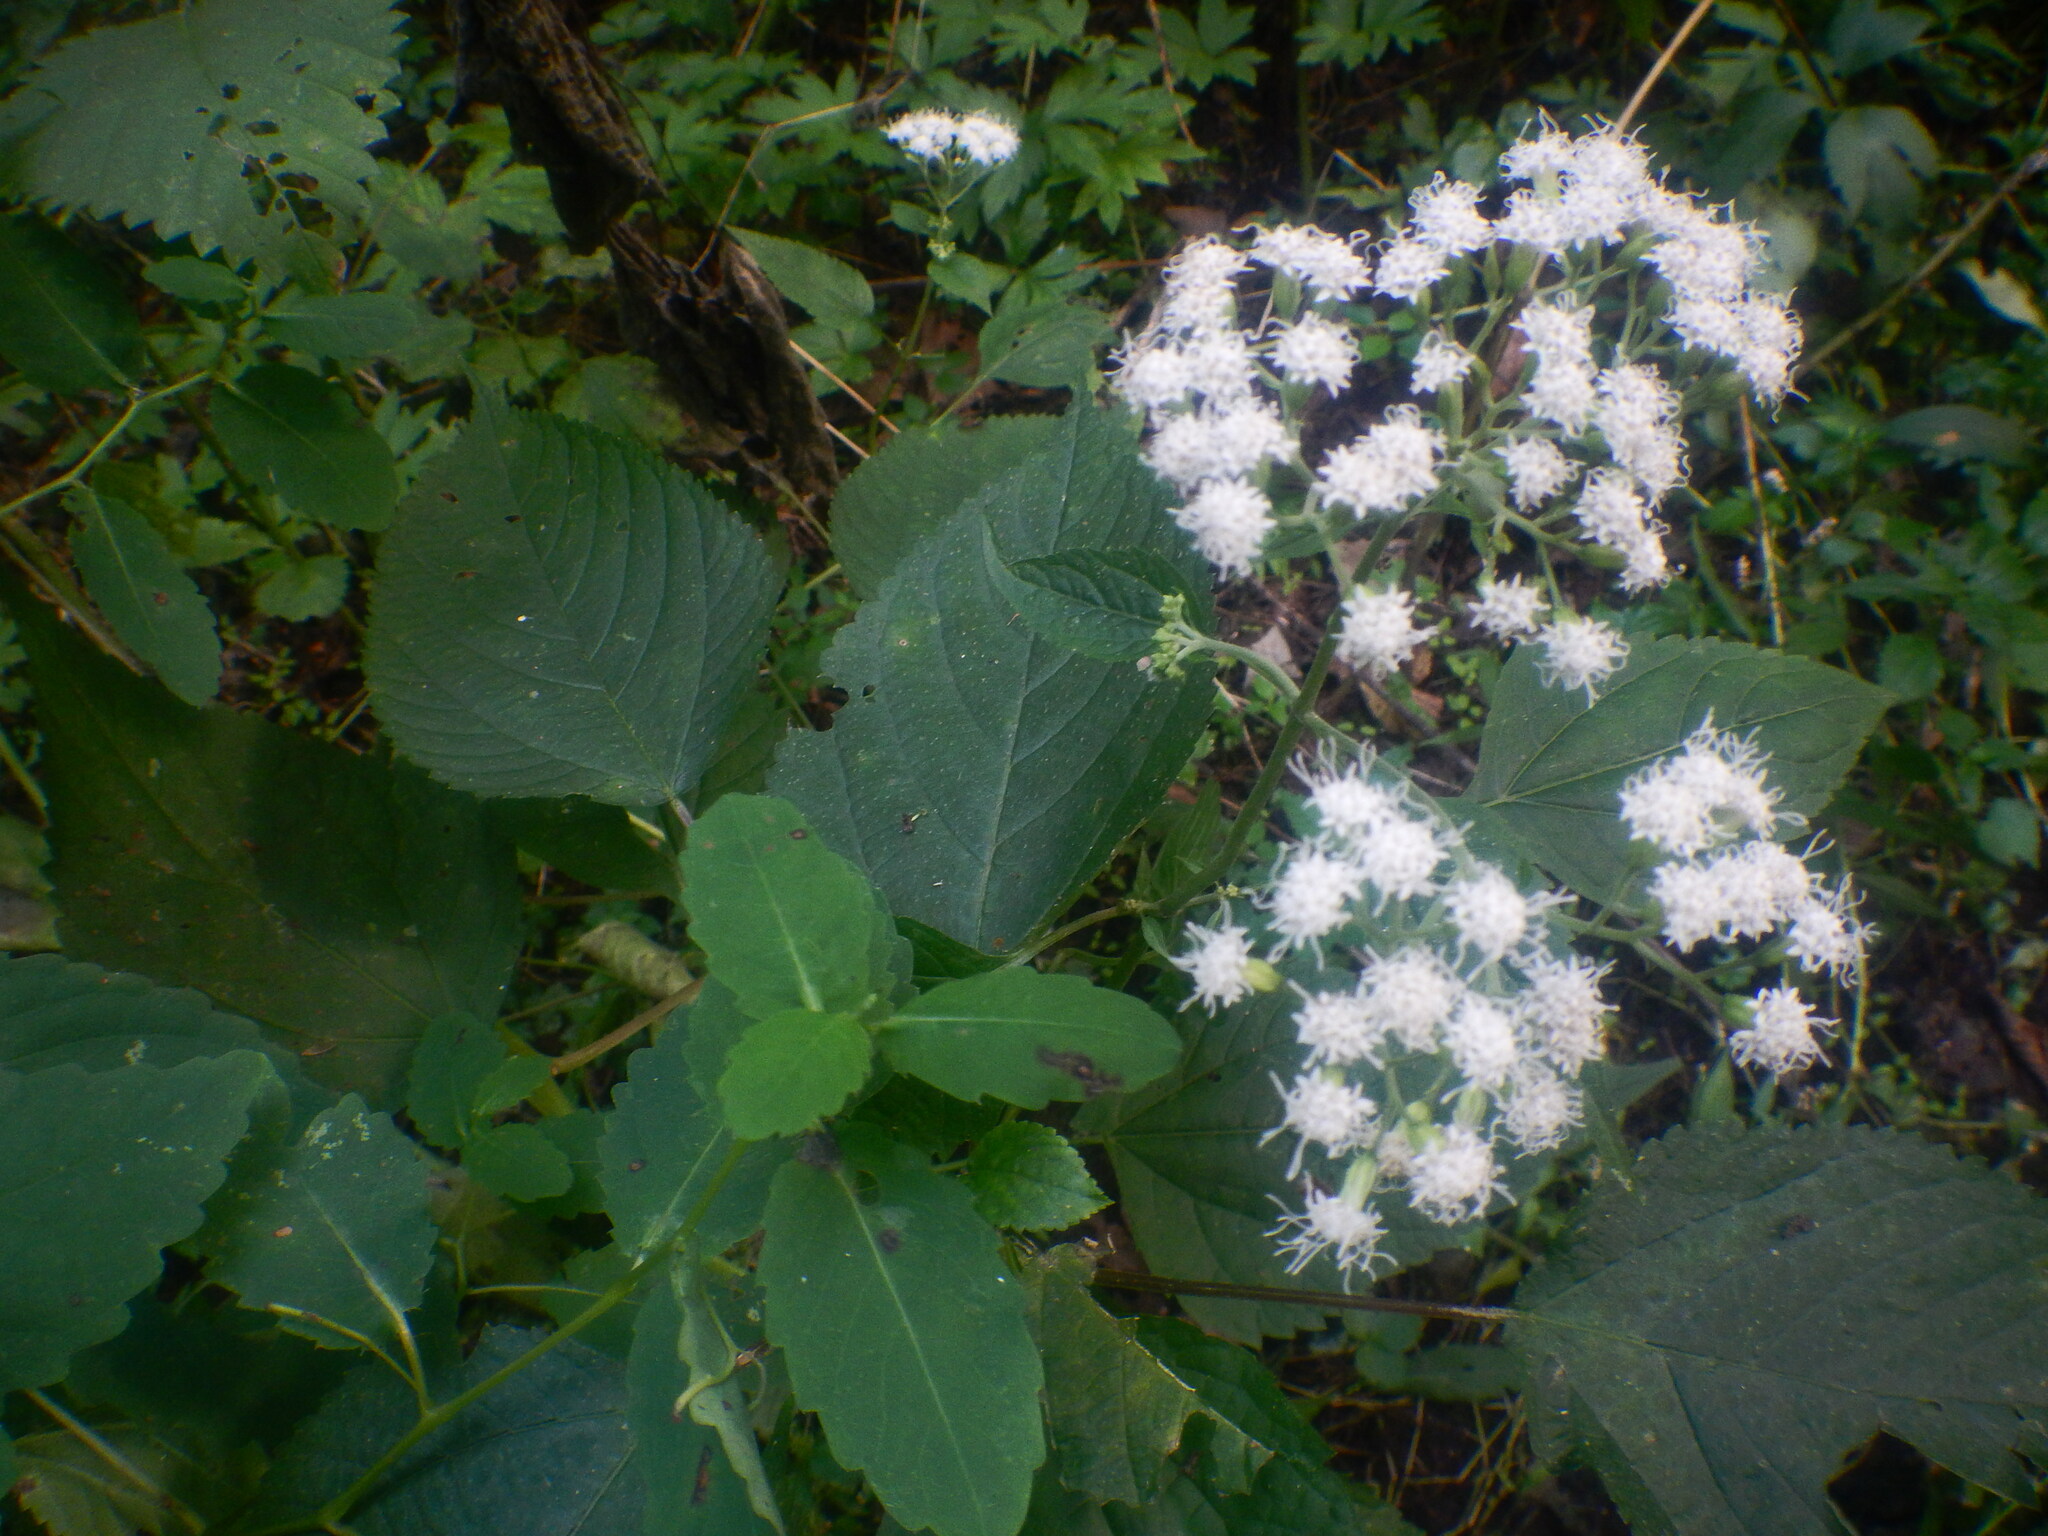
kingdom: Plantae
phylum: Tracheophyta
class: Magnoliopsida
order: Asterales
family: Asteraceae
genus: Ageratina
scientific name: Ageratina altissima
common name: White snakeroot
